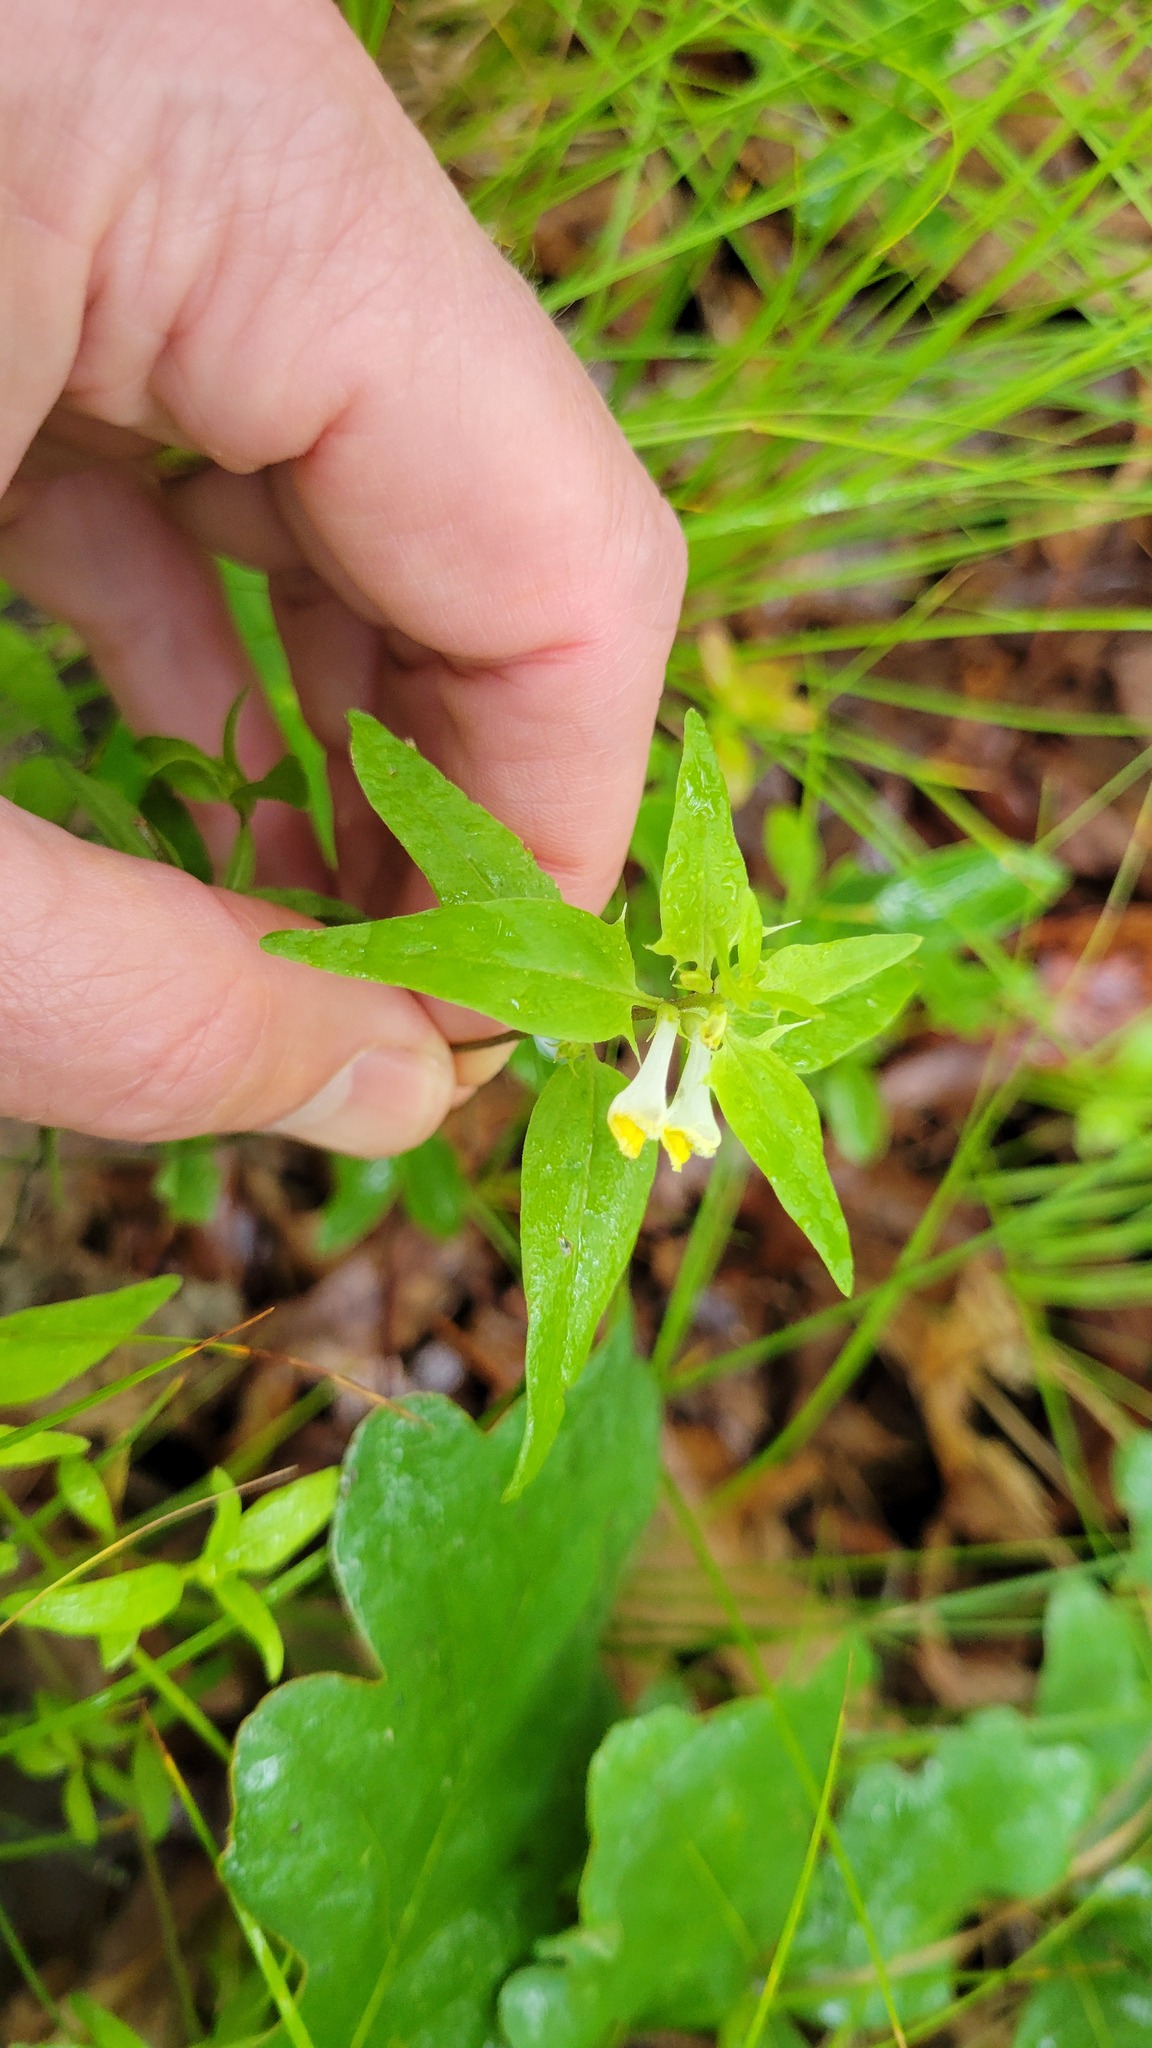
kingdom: Plantae
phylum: Tracheophyta
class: Magnoliopsida
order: Lamiales
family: Orobanchaceae
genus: Melampyrum
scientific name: Melampyrum lineare
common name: American cow-wheat
